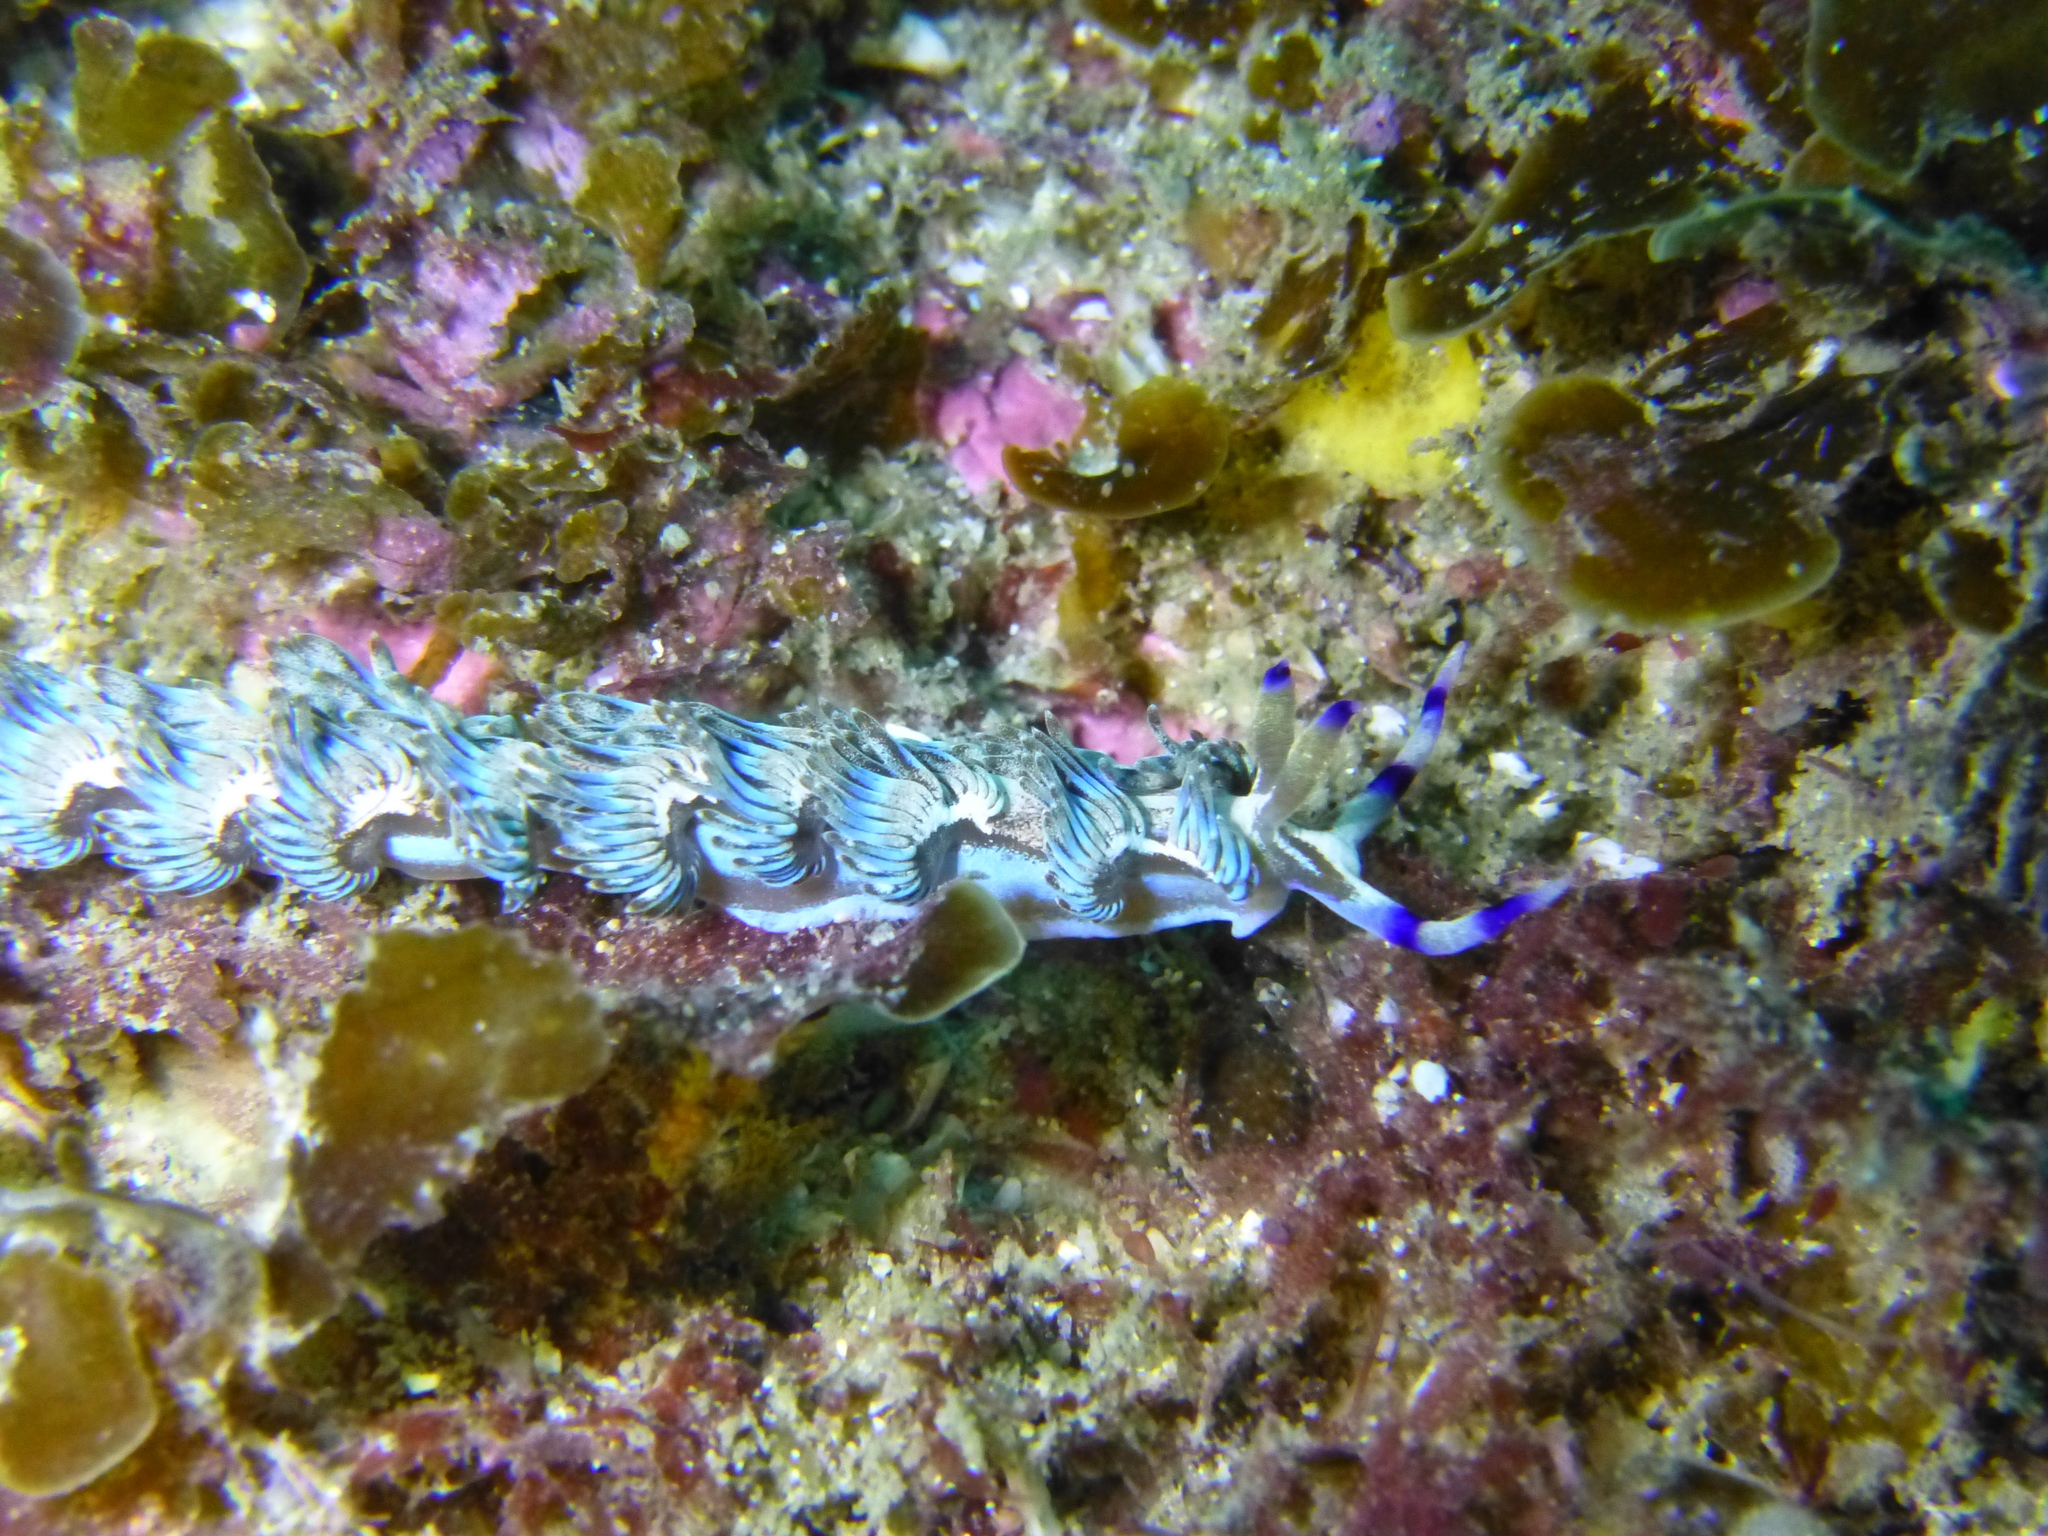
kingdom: Animalia
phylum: Mollusca
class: Gastropoda
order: Nudibranchia
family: Facelinidae
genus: Pteraeolidia
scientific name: Pteraeolidia ianthina
